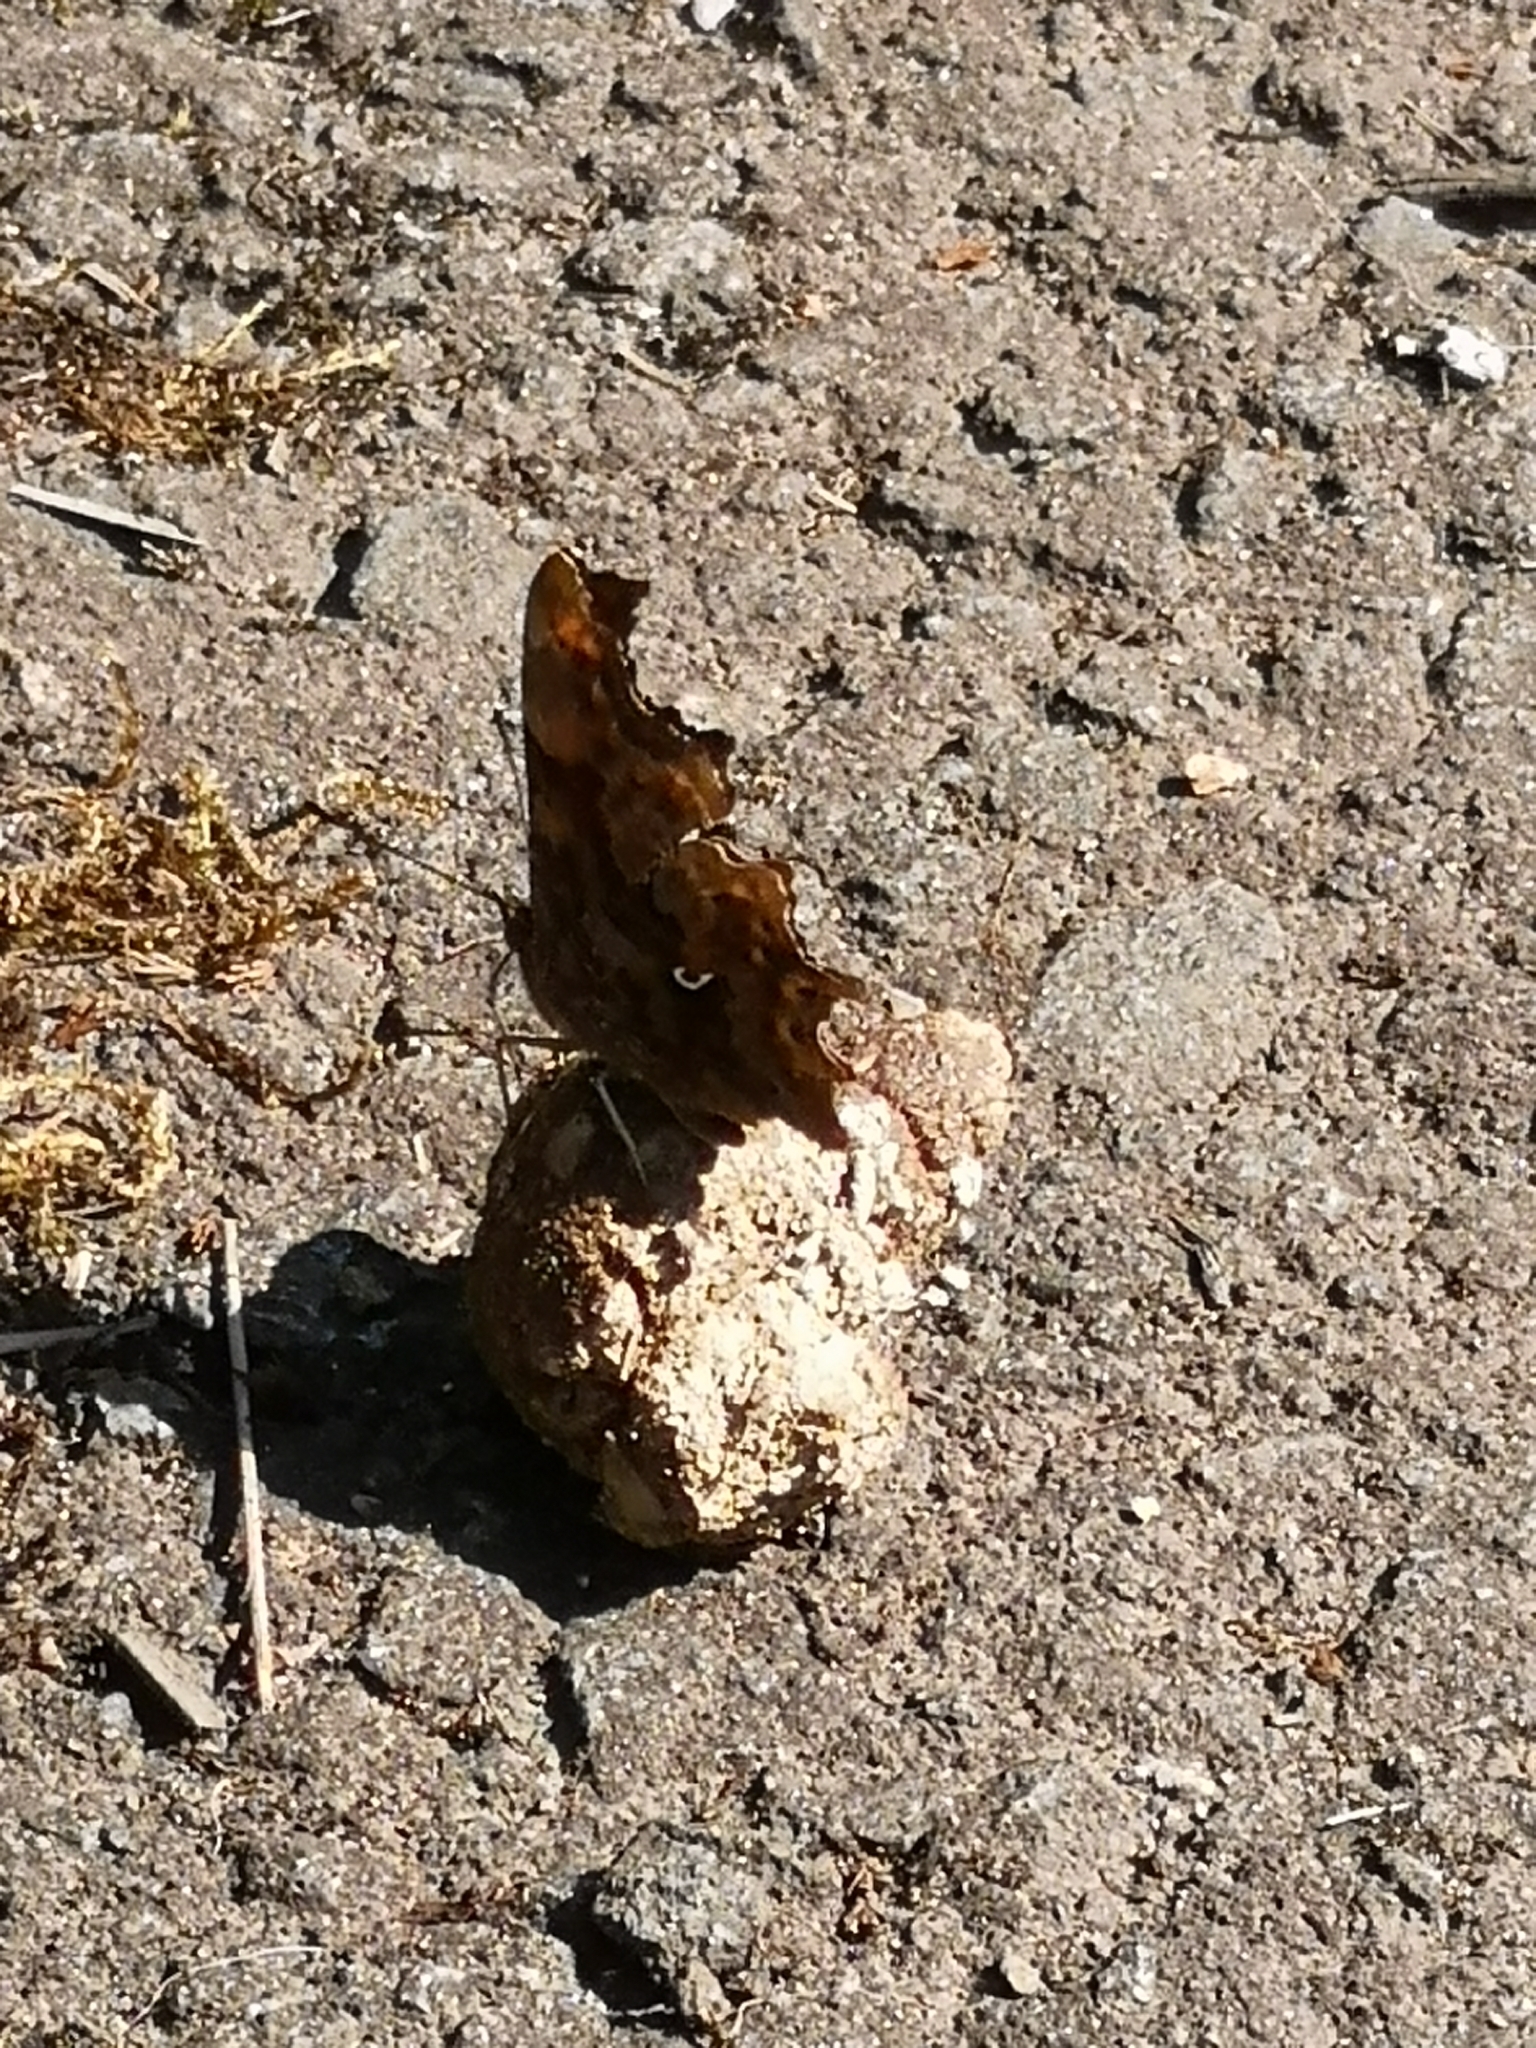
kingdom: Animalia
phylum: Arthropoda
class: Insecta
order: Lepidoptera
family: Nymphalidae
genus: Polygonia
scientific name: Polygonia c-album
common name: Comma
